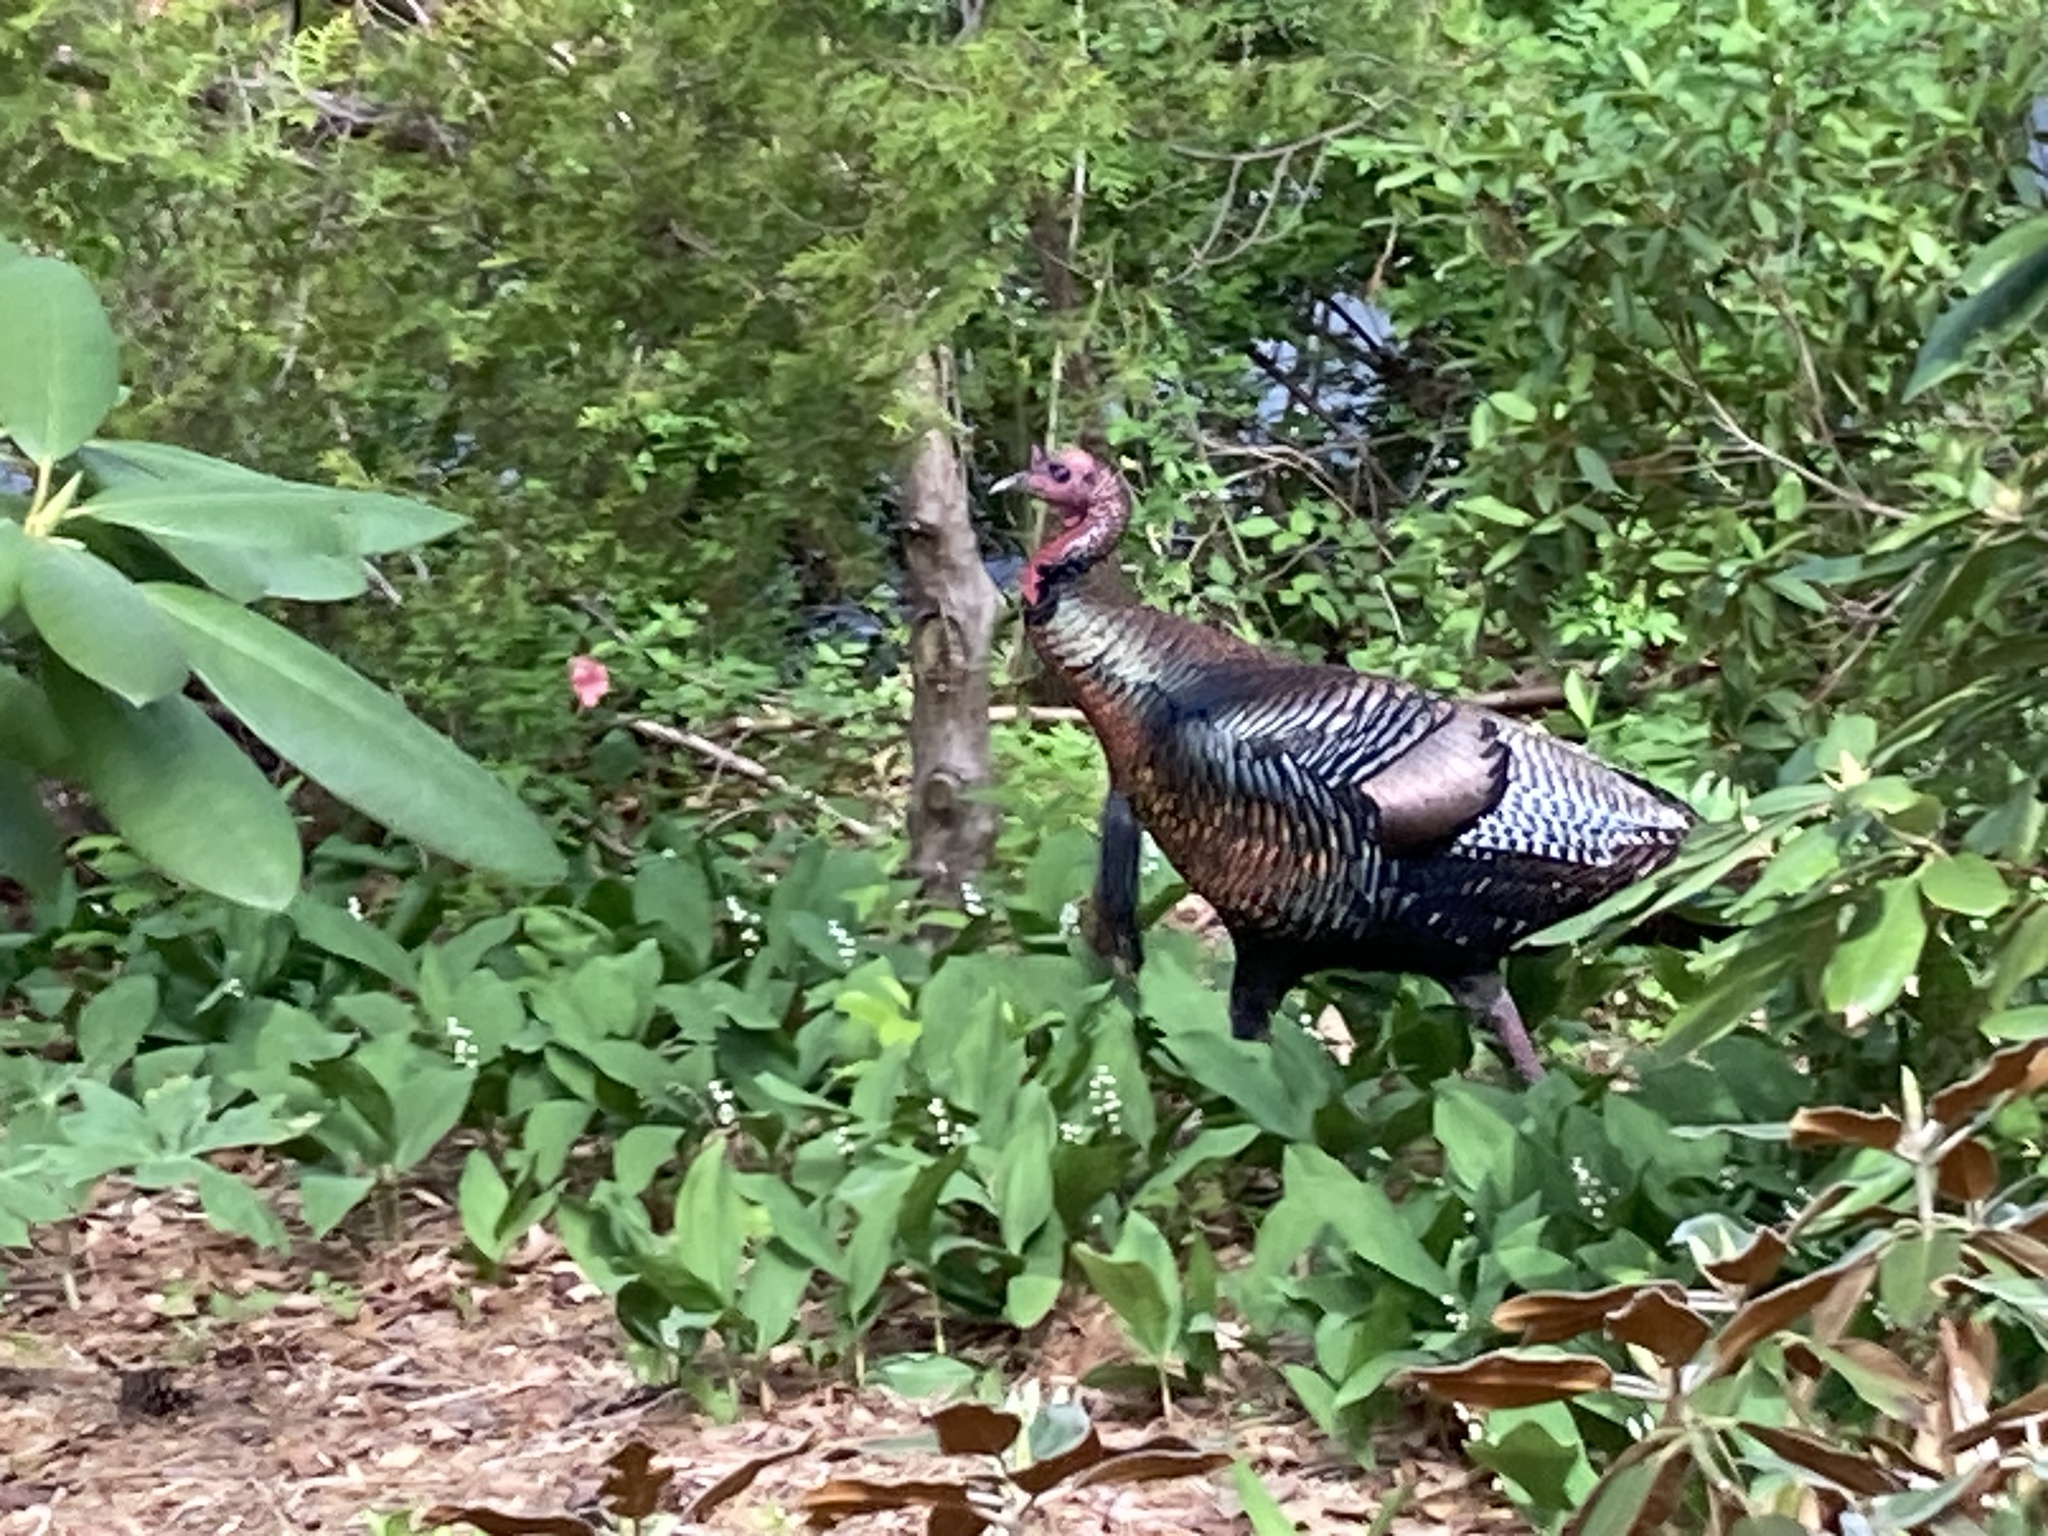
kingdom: Animalia
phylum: Chordata
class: Aves
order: Galliformes
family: Phasianidae
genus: Meleagris
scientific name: Meleagris gallopavo
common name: Wild turkey
